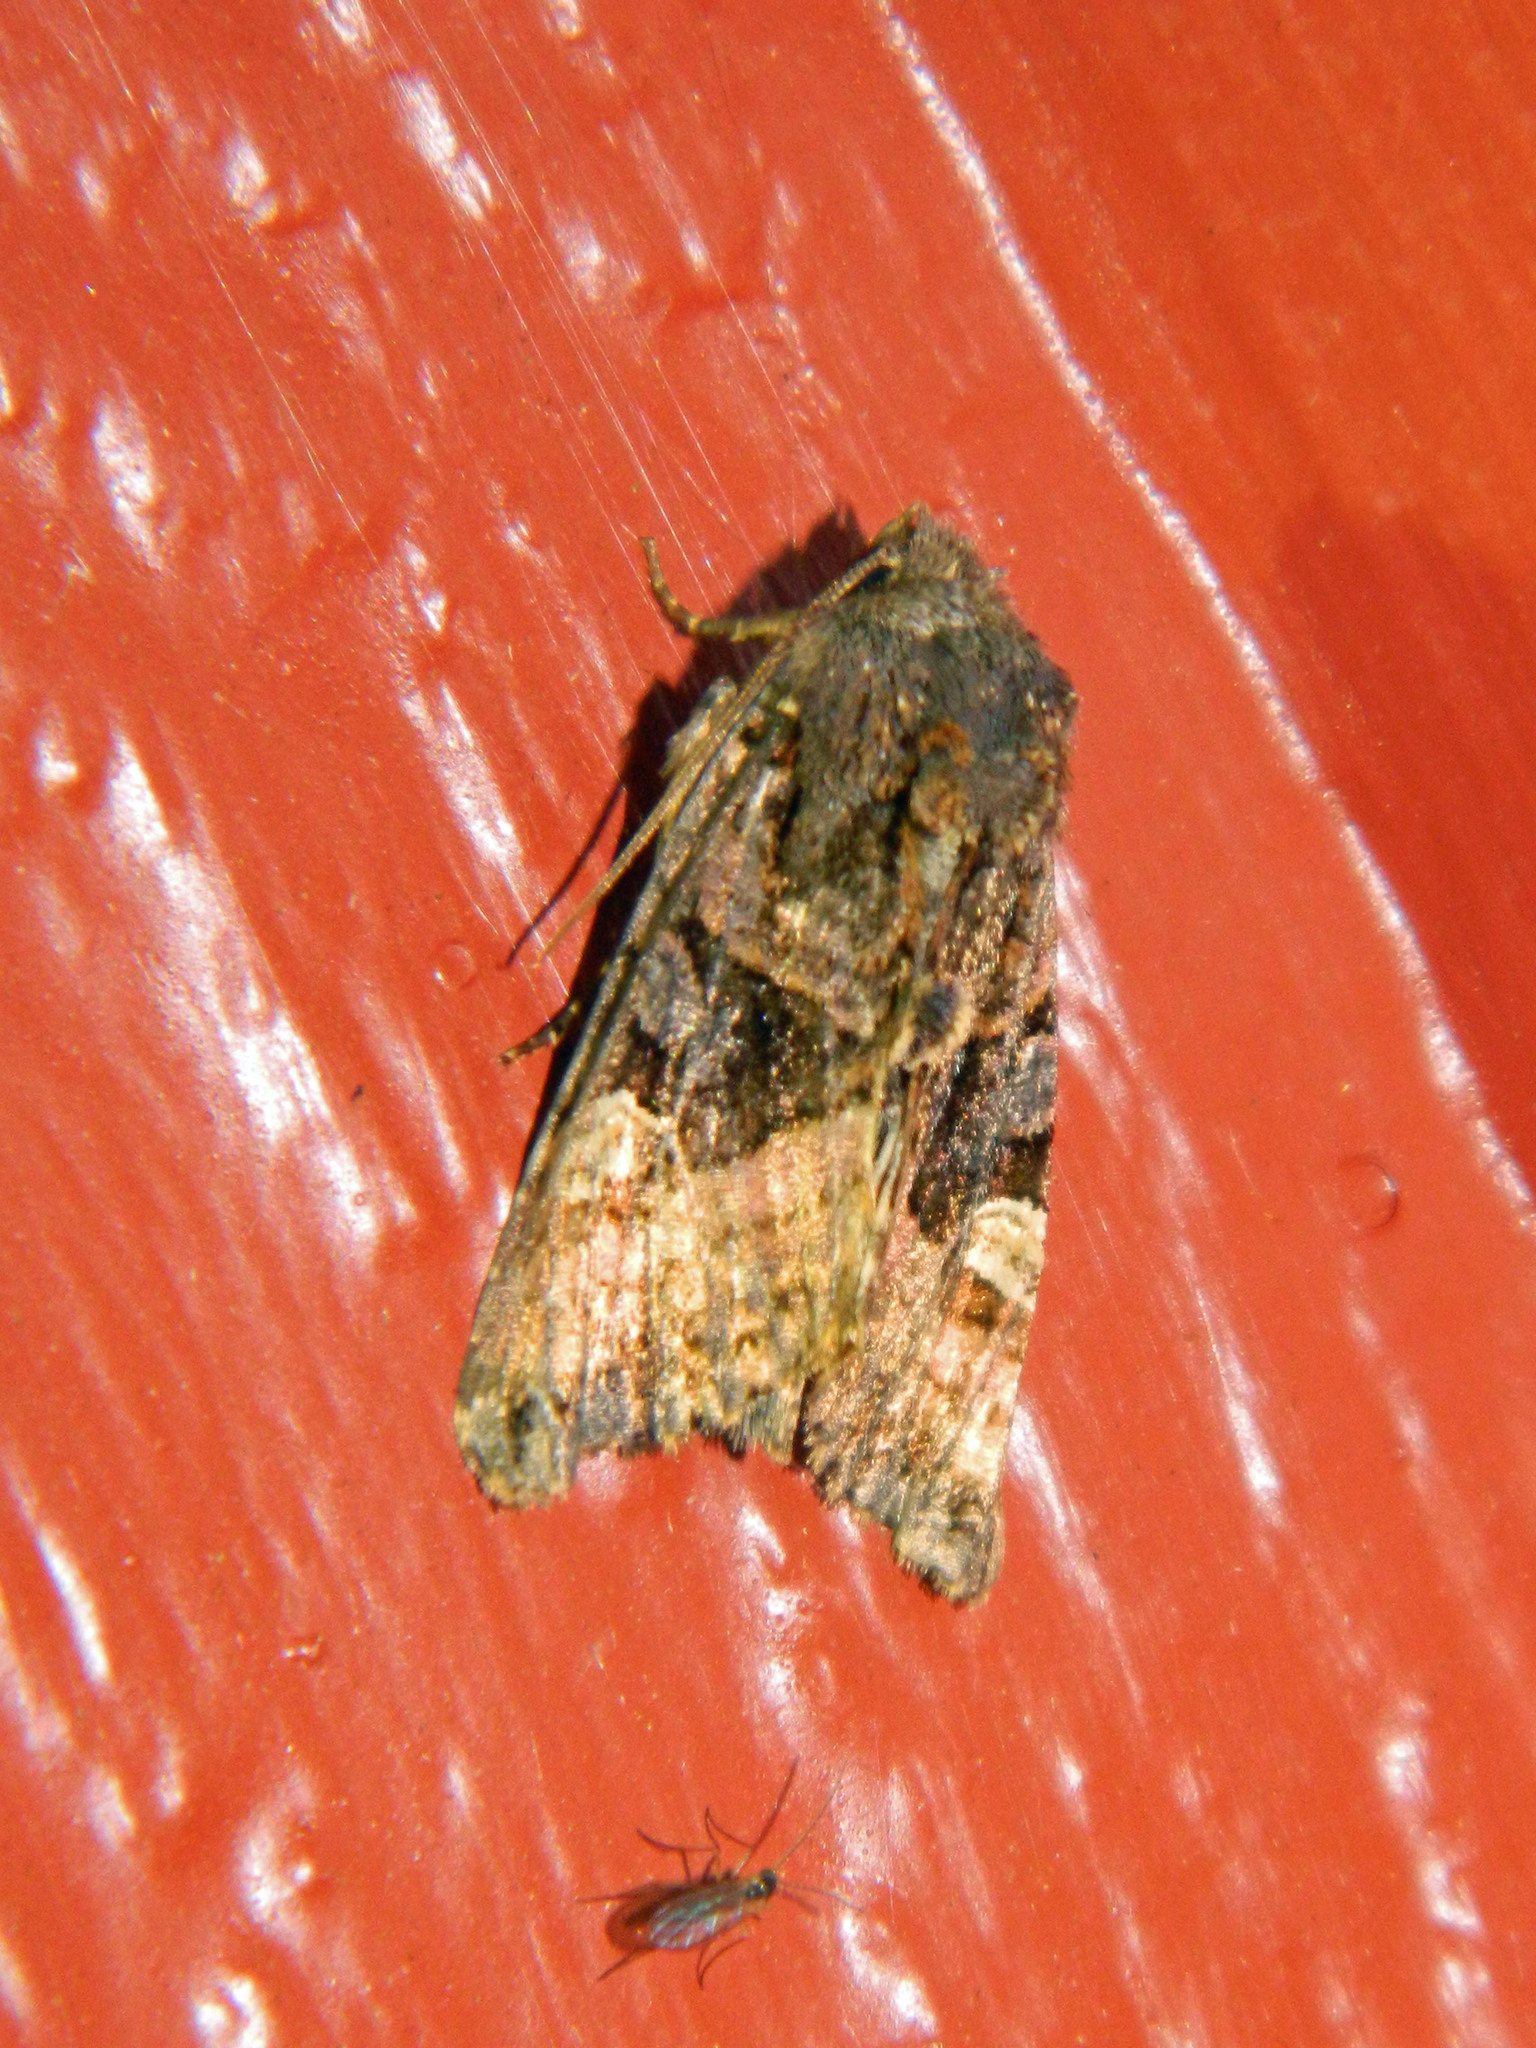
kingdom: Animalia
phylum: Arthropoda
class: Insecta
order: Lepidoptera
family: Noctuidae
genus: Euplexia
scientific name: Euplexia benesimilis
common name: American angle shades
